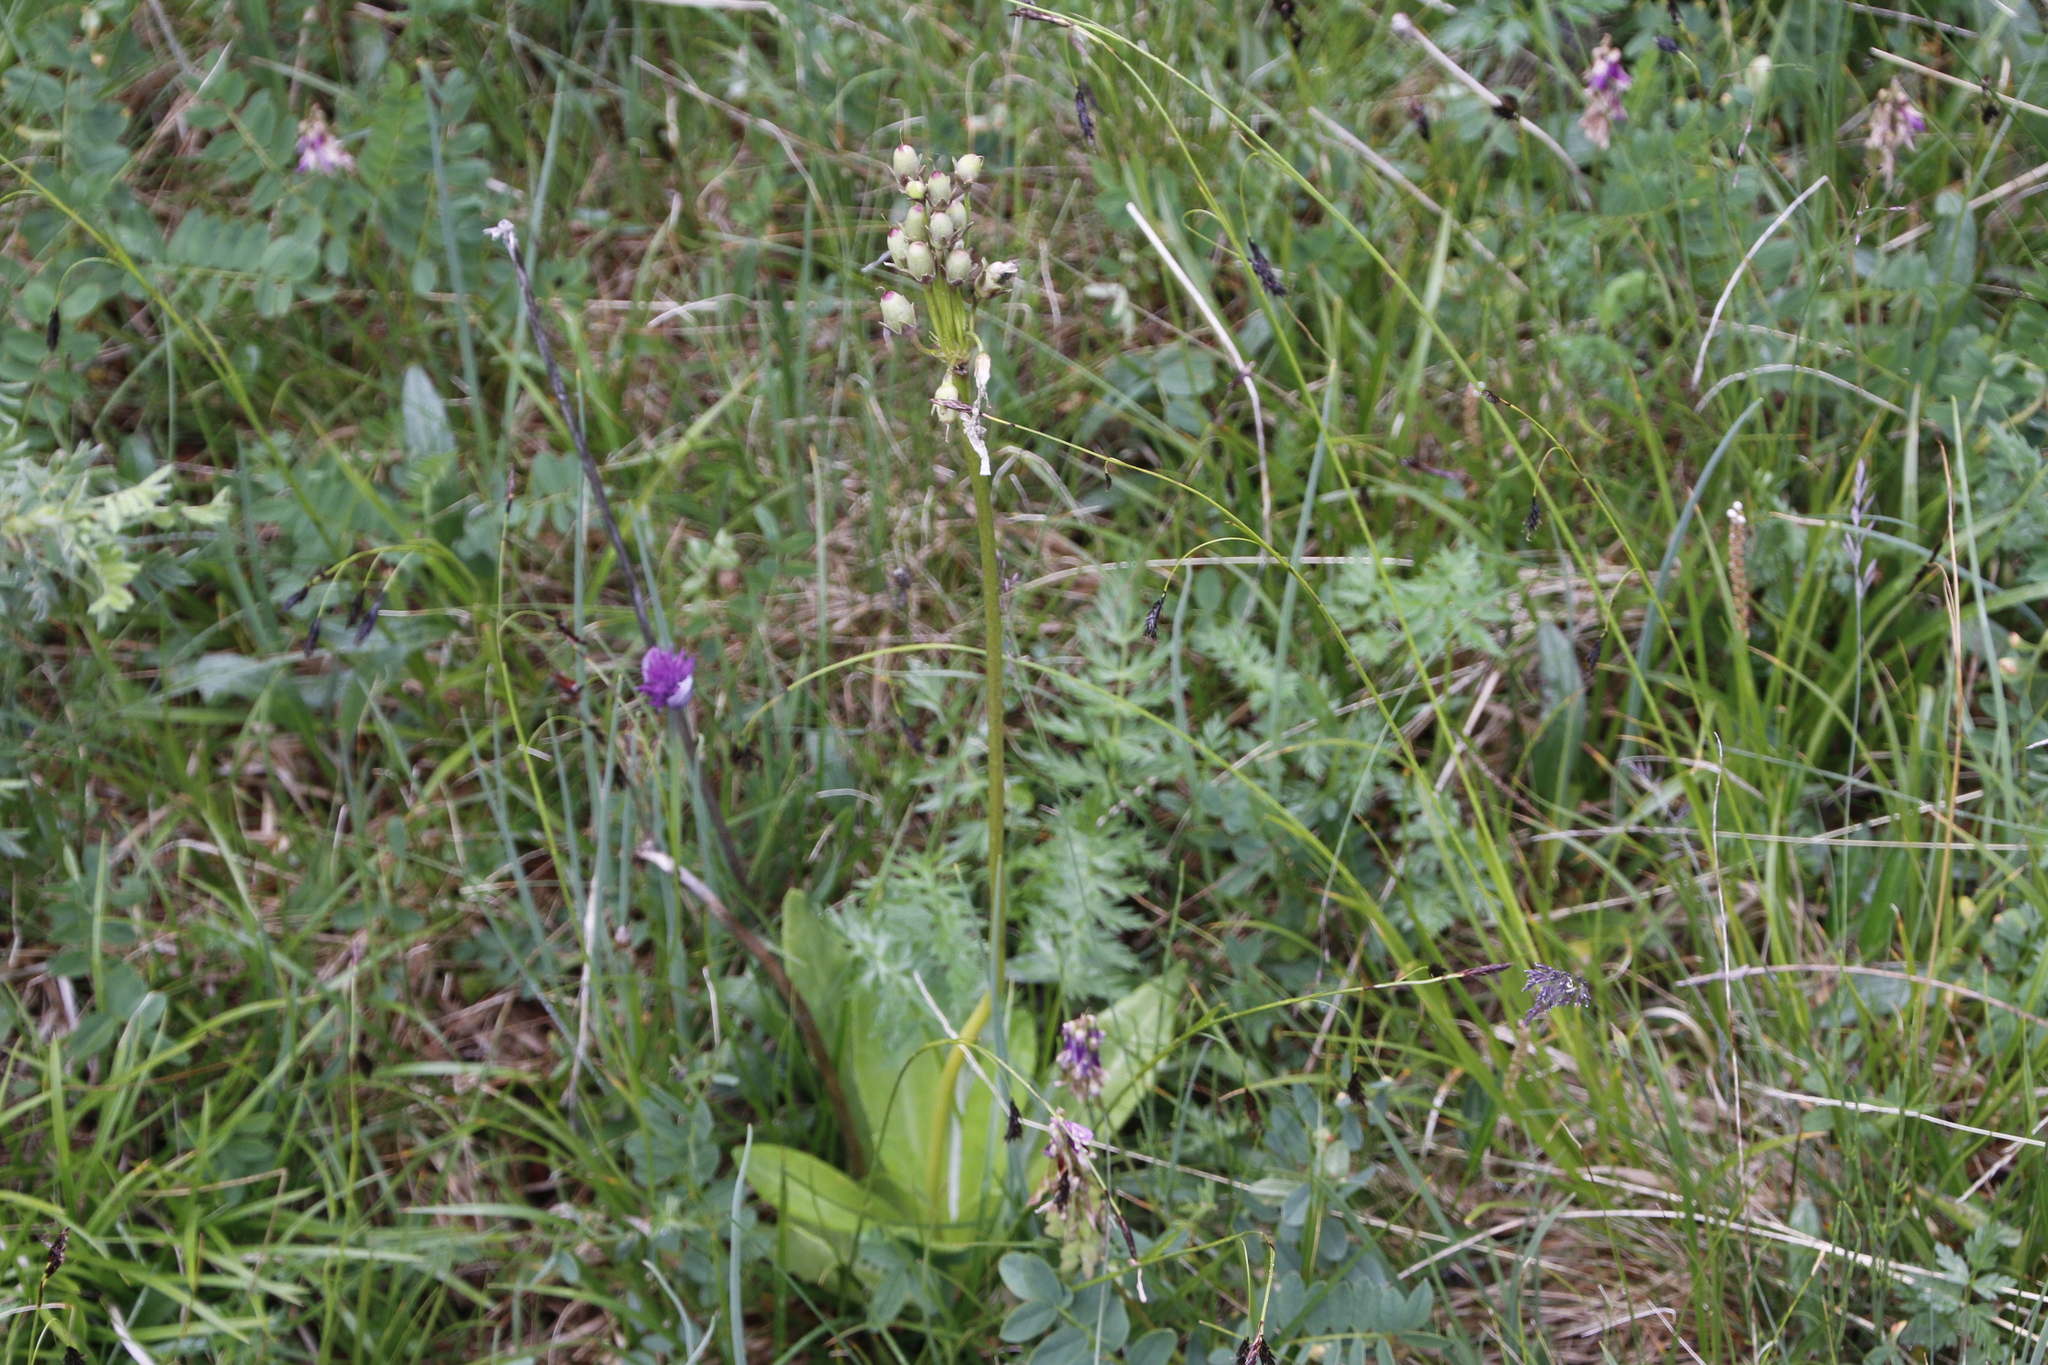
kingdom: Plantae
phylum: Tracheophyta
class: Magnoliopsida
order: Ericales
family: Primulaceae
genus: Primula
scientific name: Primula nivalis
